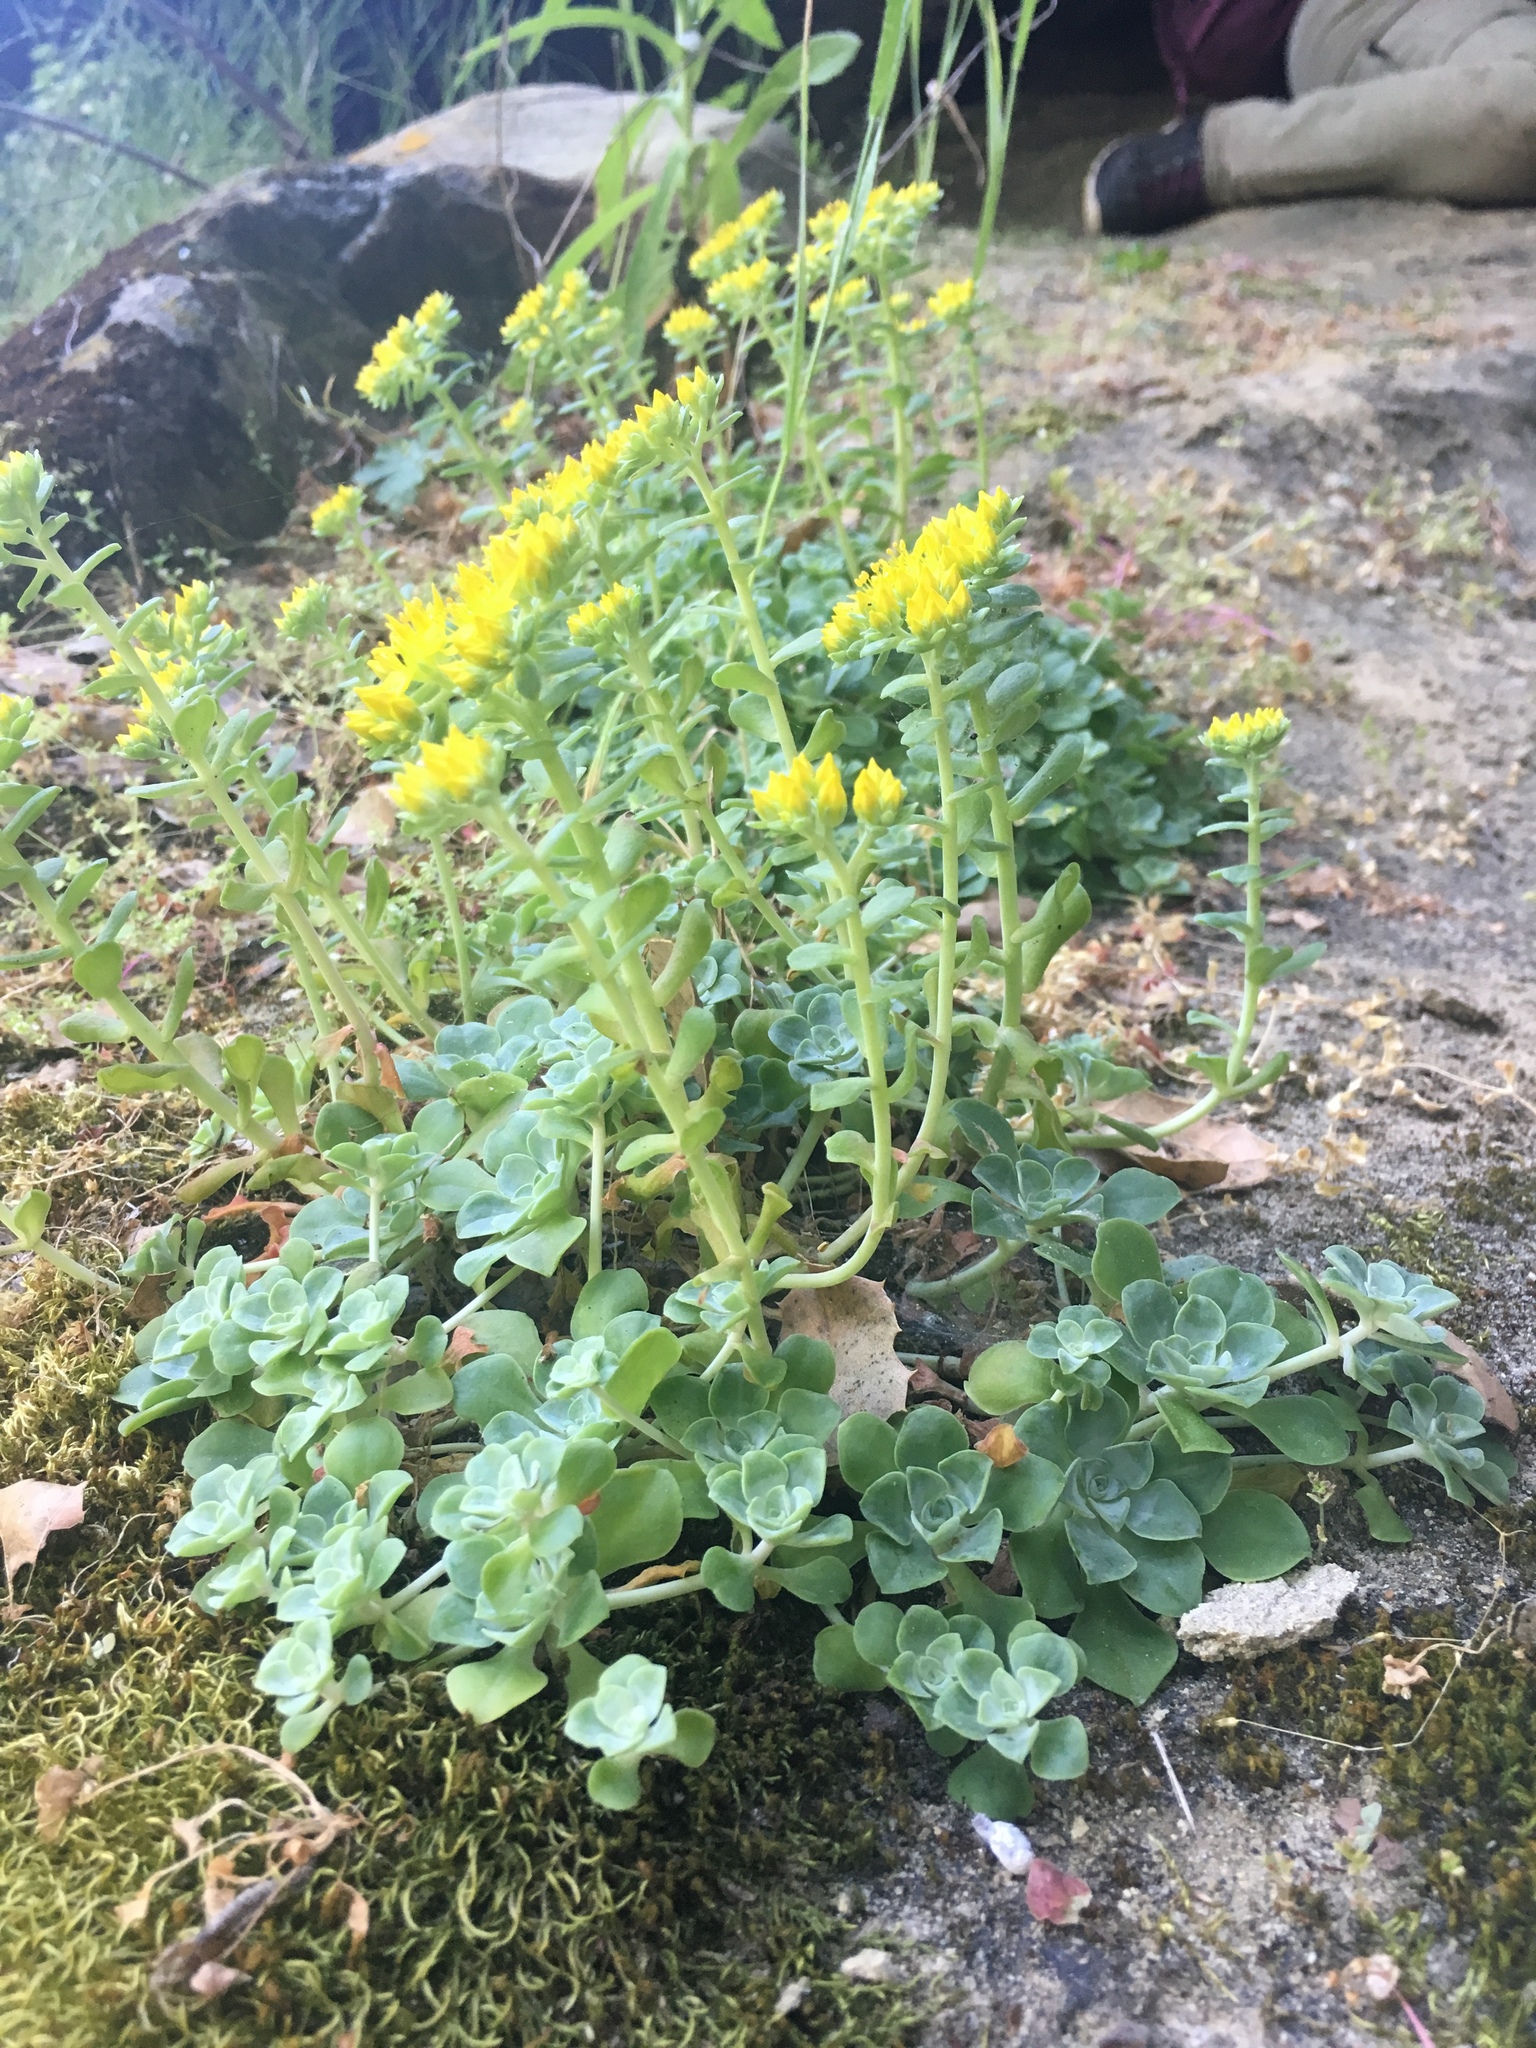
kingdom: Plantae
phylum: Tracheophyta
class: Magnoliopsida
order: Saxifragales
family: Crassulaceae
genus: Sedum
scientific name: Sedum spathulifolium
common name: Colorado stonecrop
